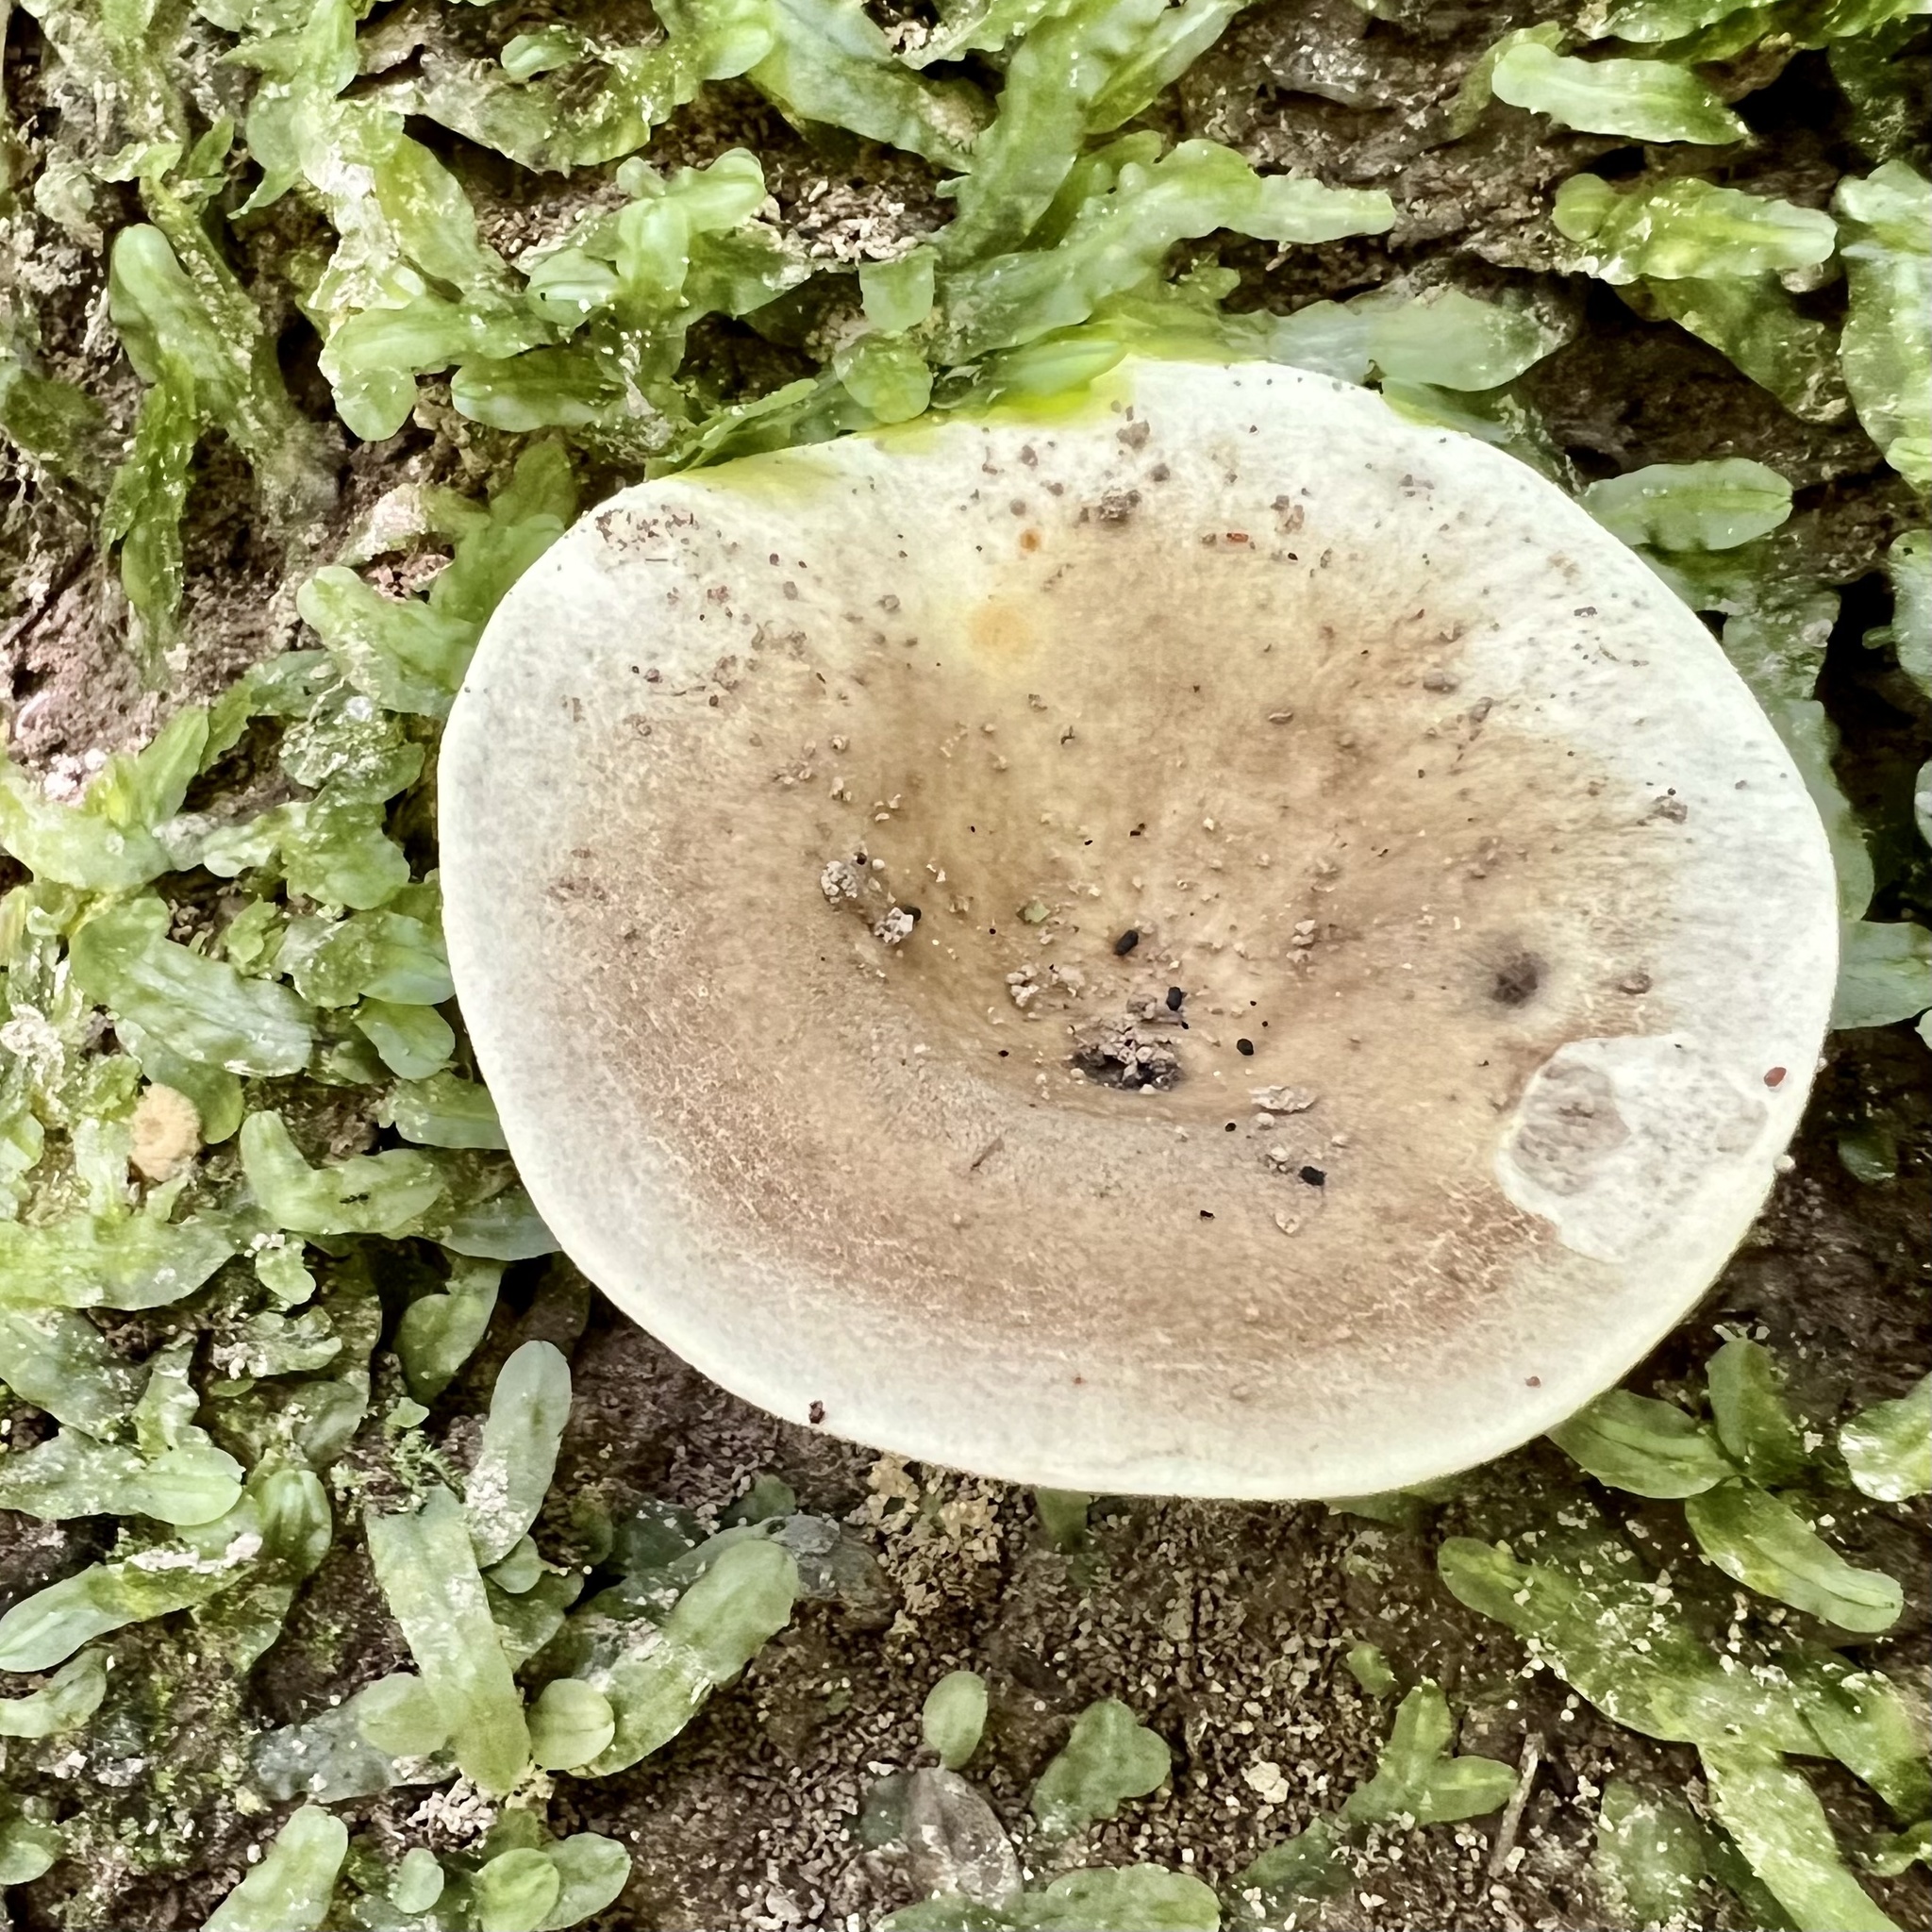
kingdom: Fungi
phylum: Basidiomycota
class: Agaricomycetes
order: Russulales
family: Russulaceae
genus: Russula
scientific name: Russula dissimulans
